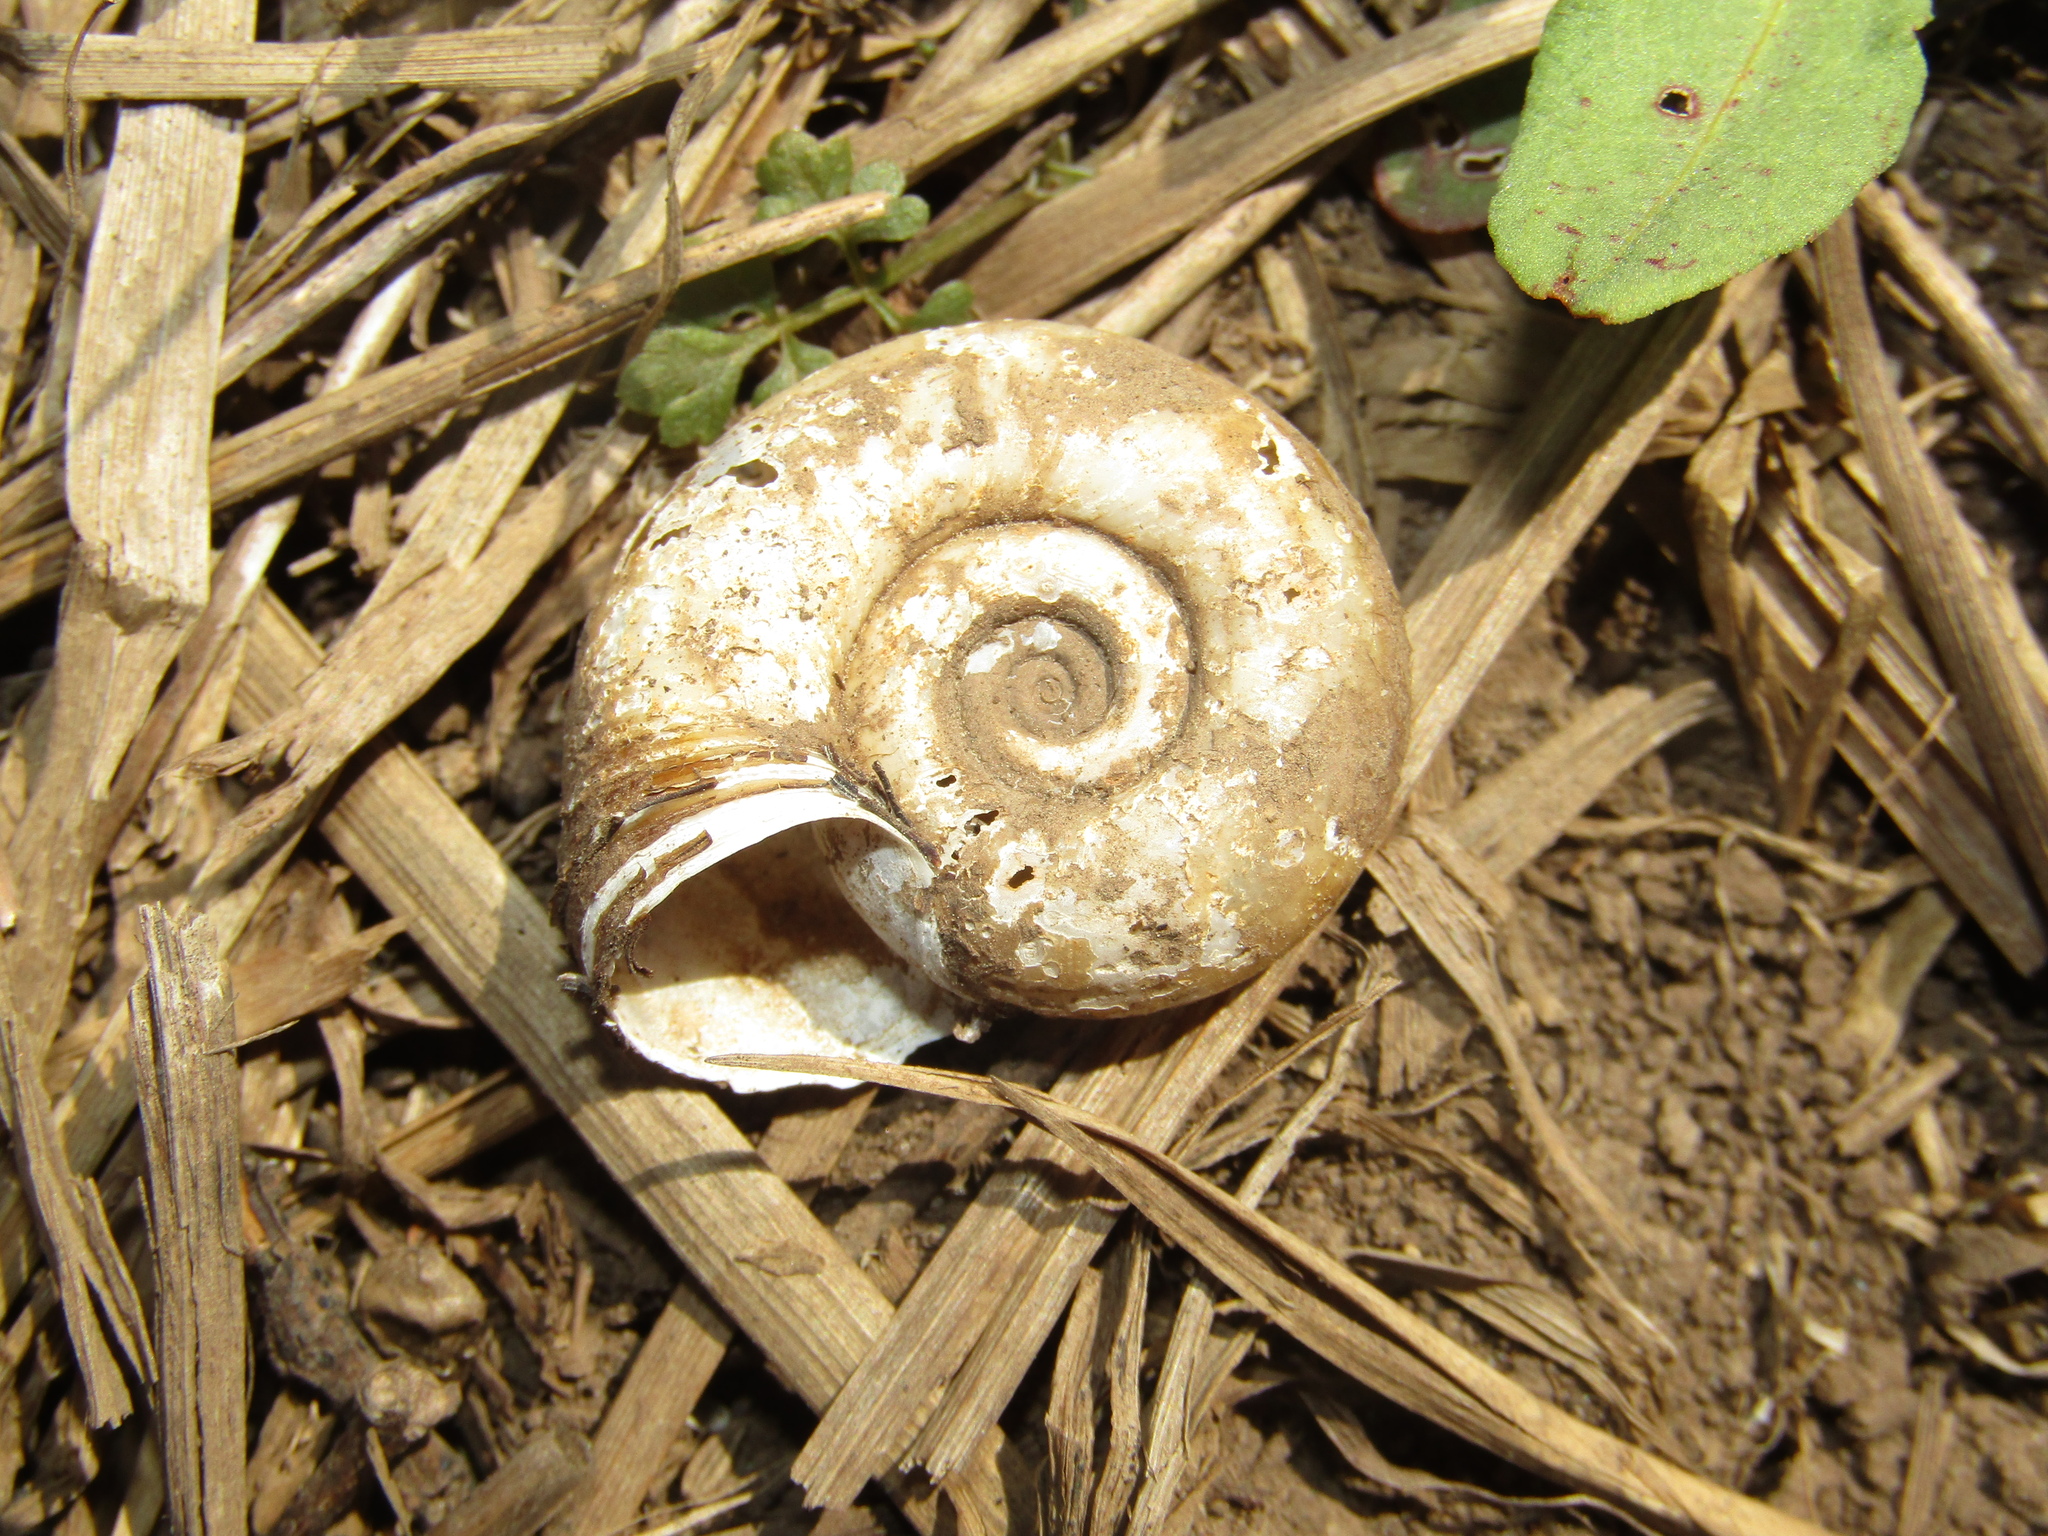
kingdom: Animalia
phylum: Mollusca
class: Gastropoda
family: Planorbidae
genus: Planorbarius
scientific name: Planorbarius corneus
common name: Great ramshorn
